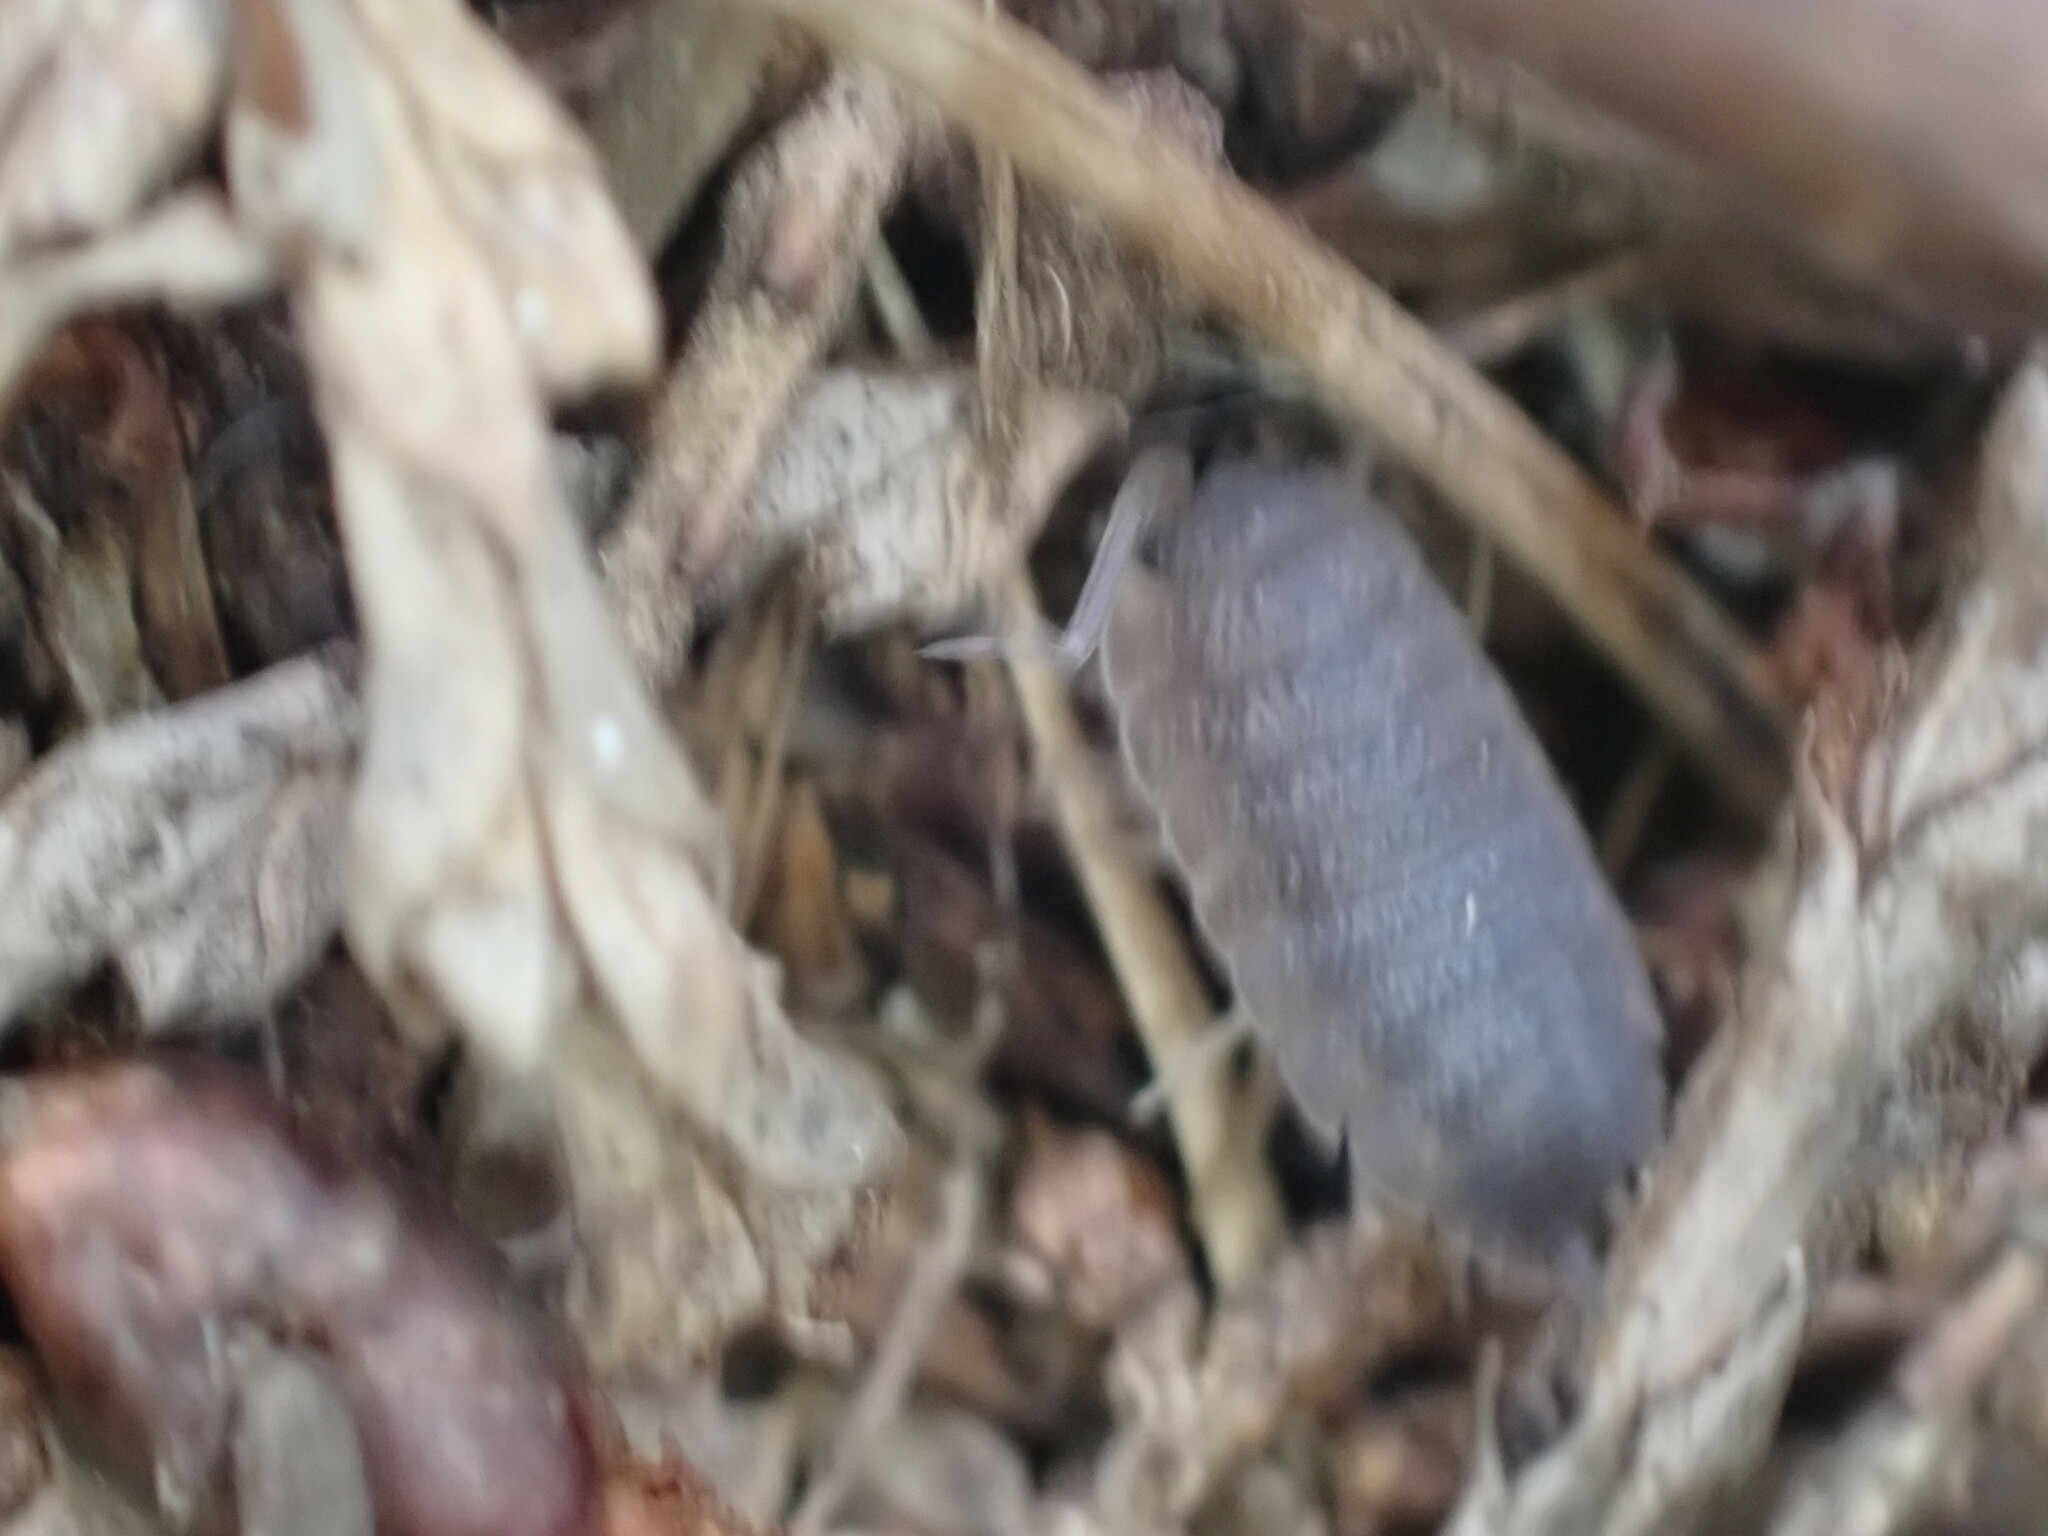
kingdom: Animalia
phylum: Arthropoda
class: Malacostraca
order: Isopoda
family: Porcellionidae
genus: Porcellio
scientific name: Porcellio scaber
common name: Common rough woodlouse
